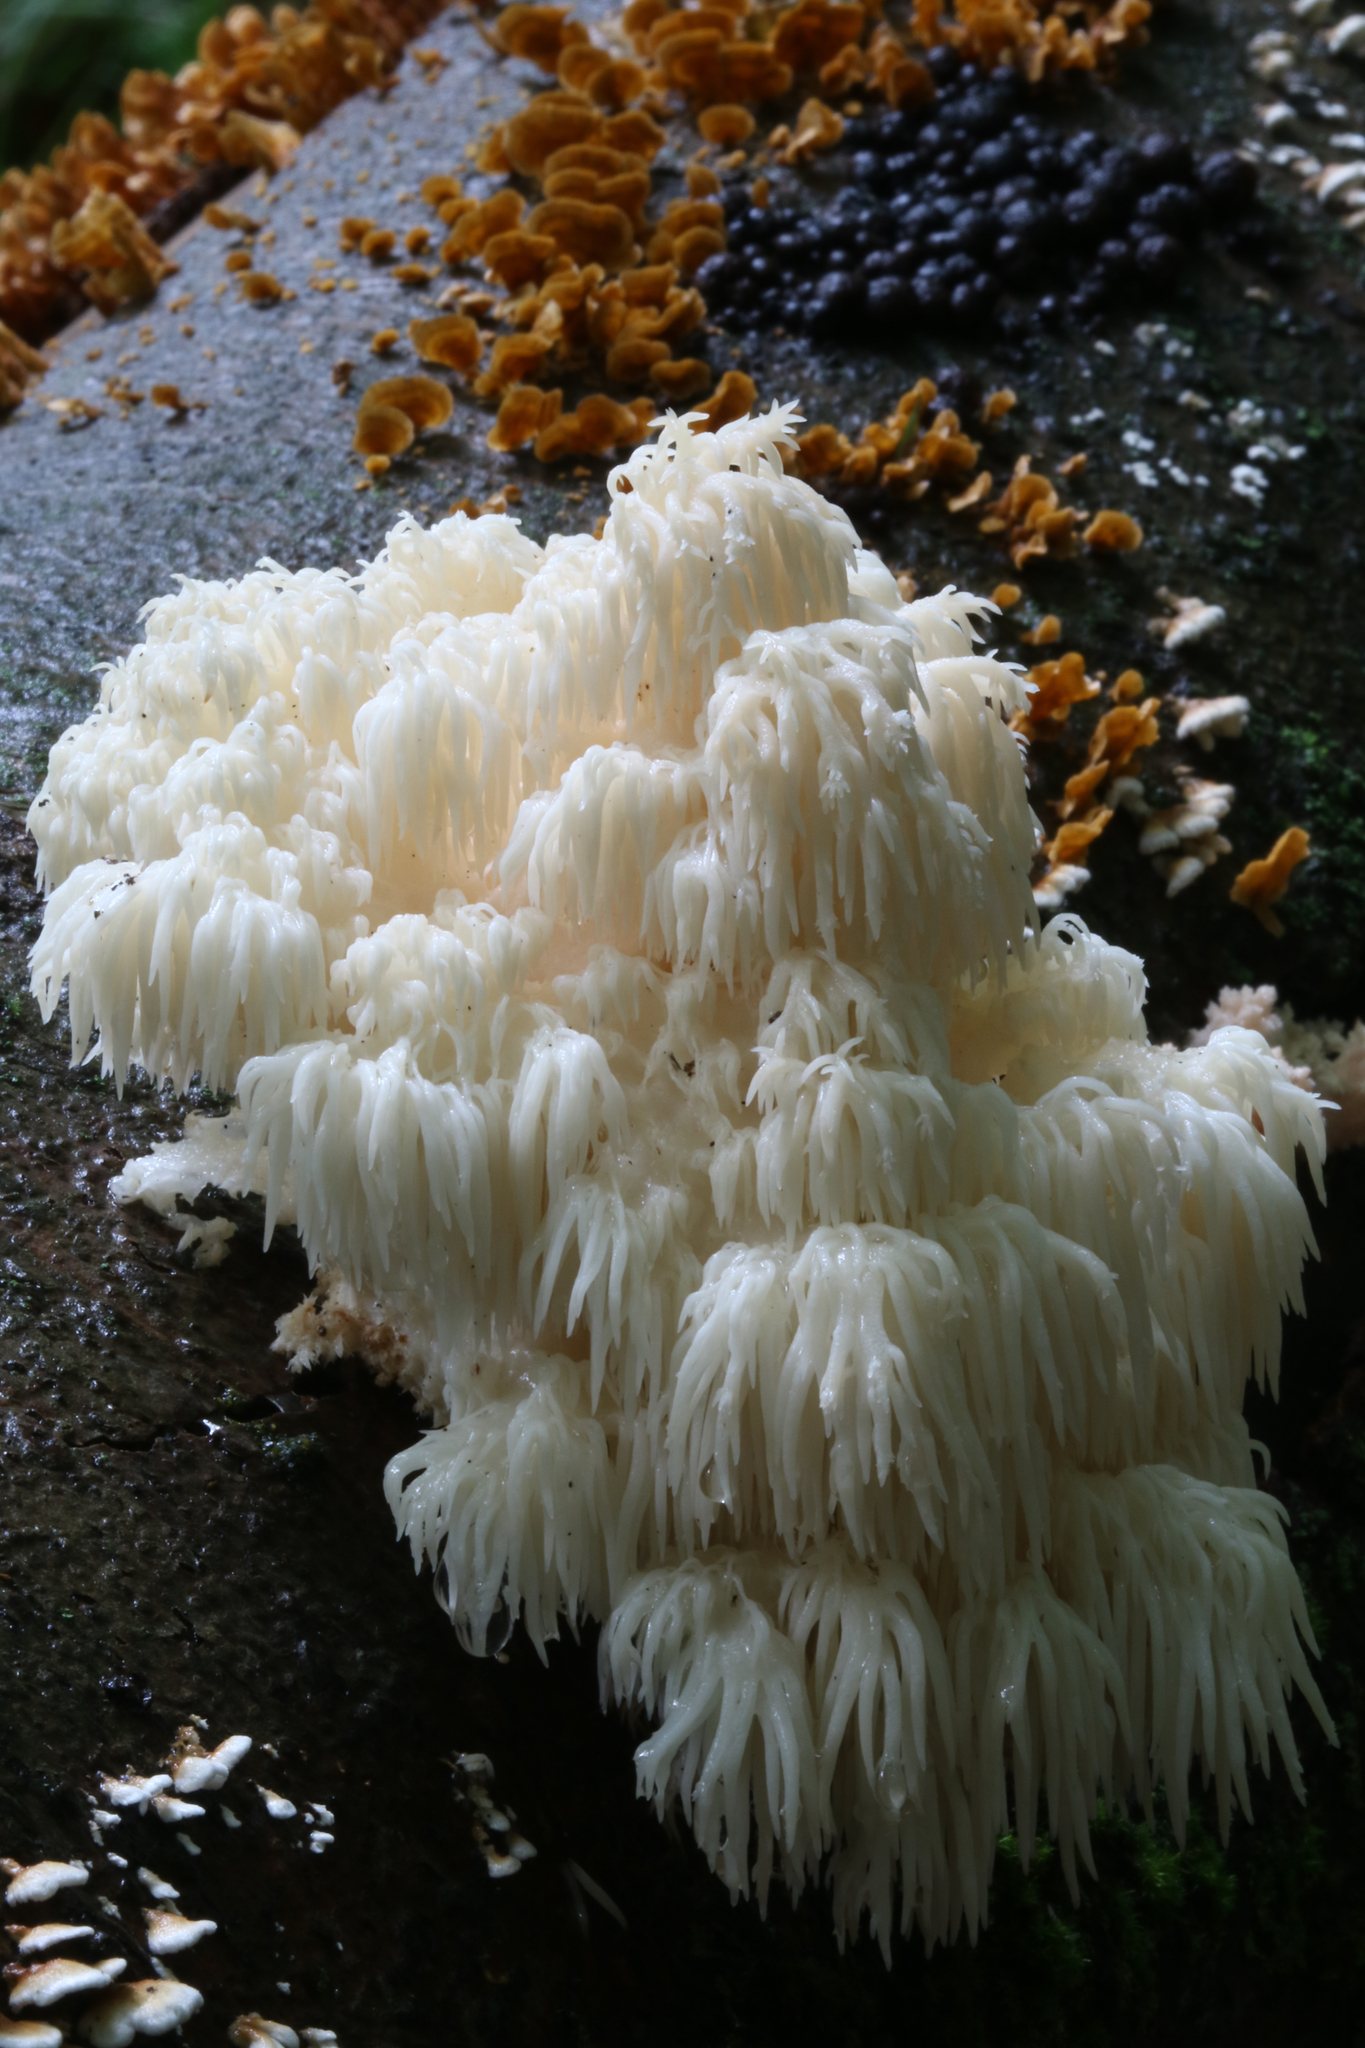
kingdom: Fungi
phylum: Basidiomycota
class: Agaricomycetes
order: Russulales
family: Hericiaceae
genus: Hericium
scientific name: Hericium americanum
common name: Bear's head tooth
